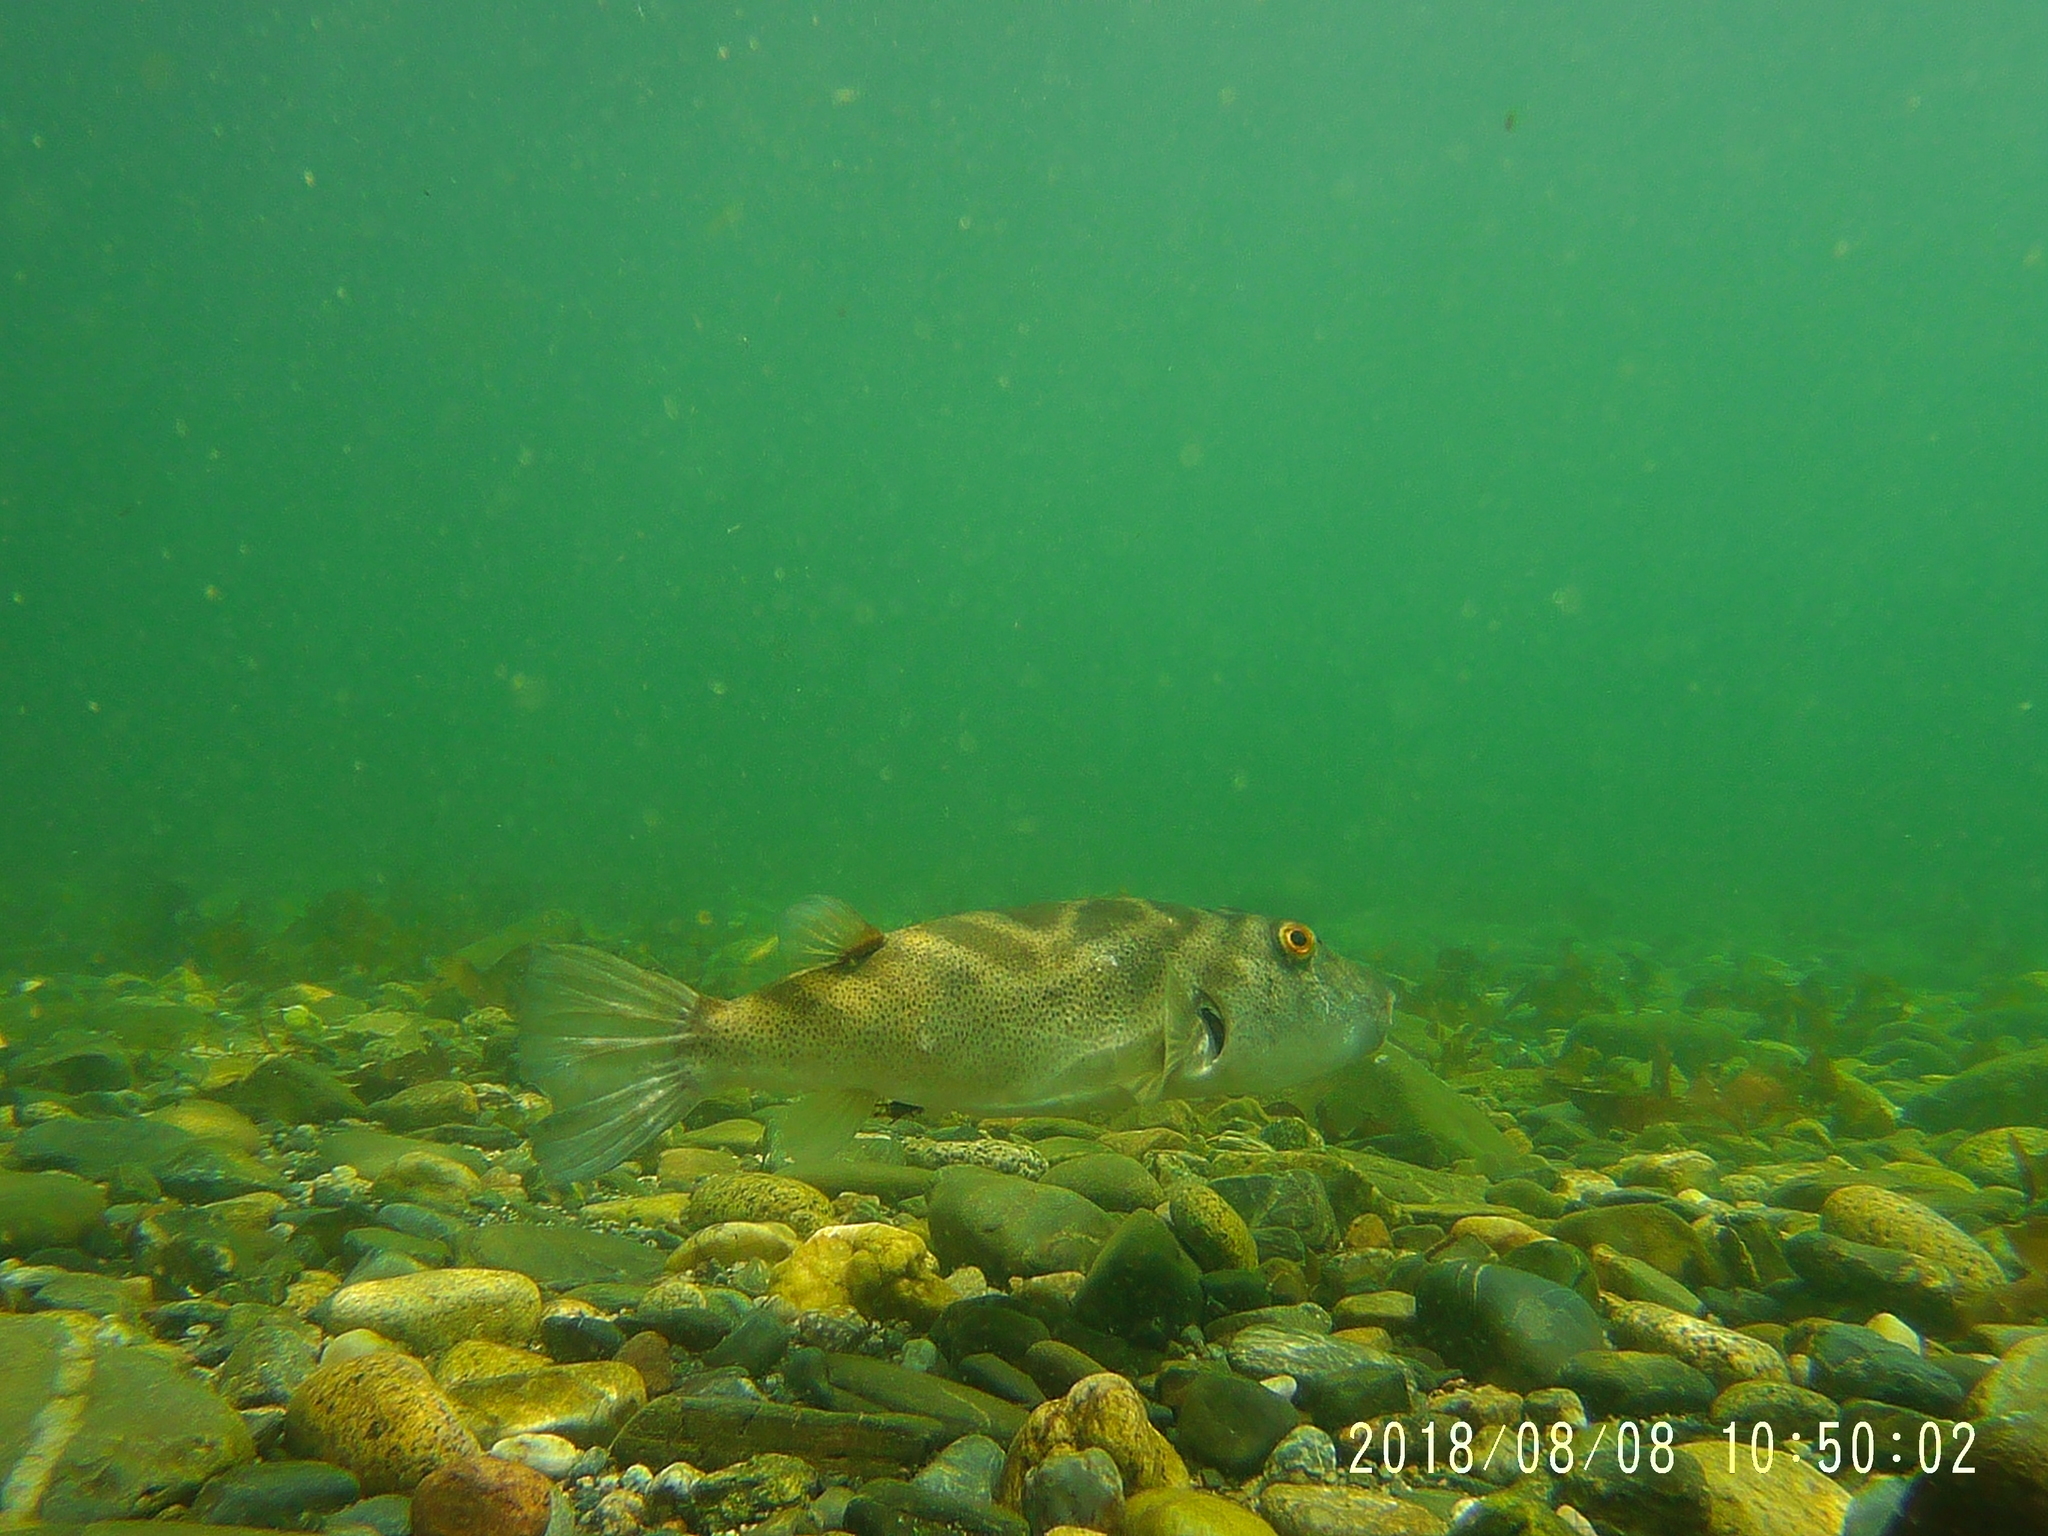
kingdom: Animalia
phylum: Chordata
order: Tetraodontiformes
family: Tetraodontidae
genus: Sphoeroides
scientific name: Sphoeroides annulatus
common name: Bullseye puffer
